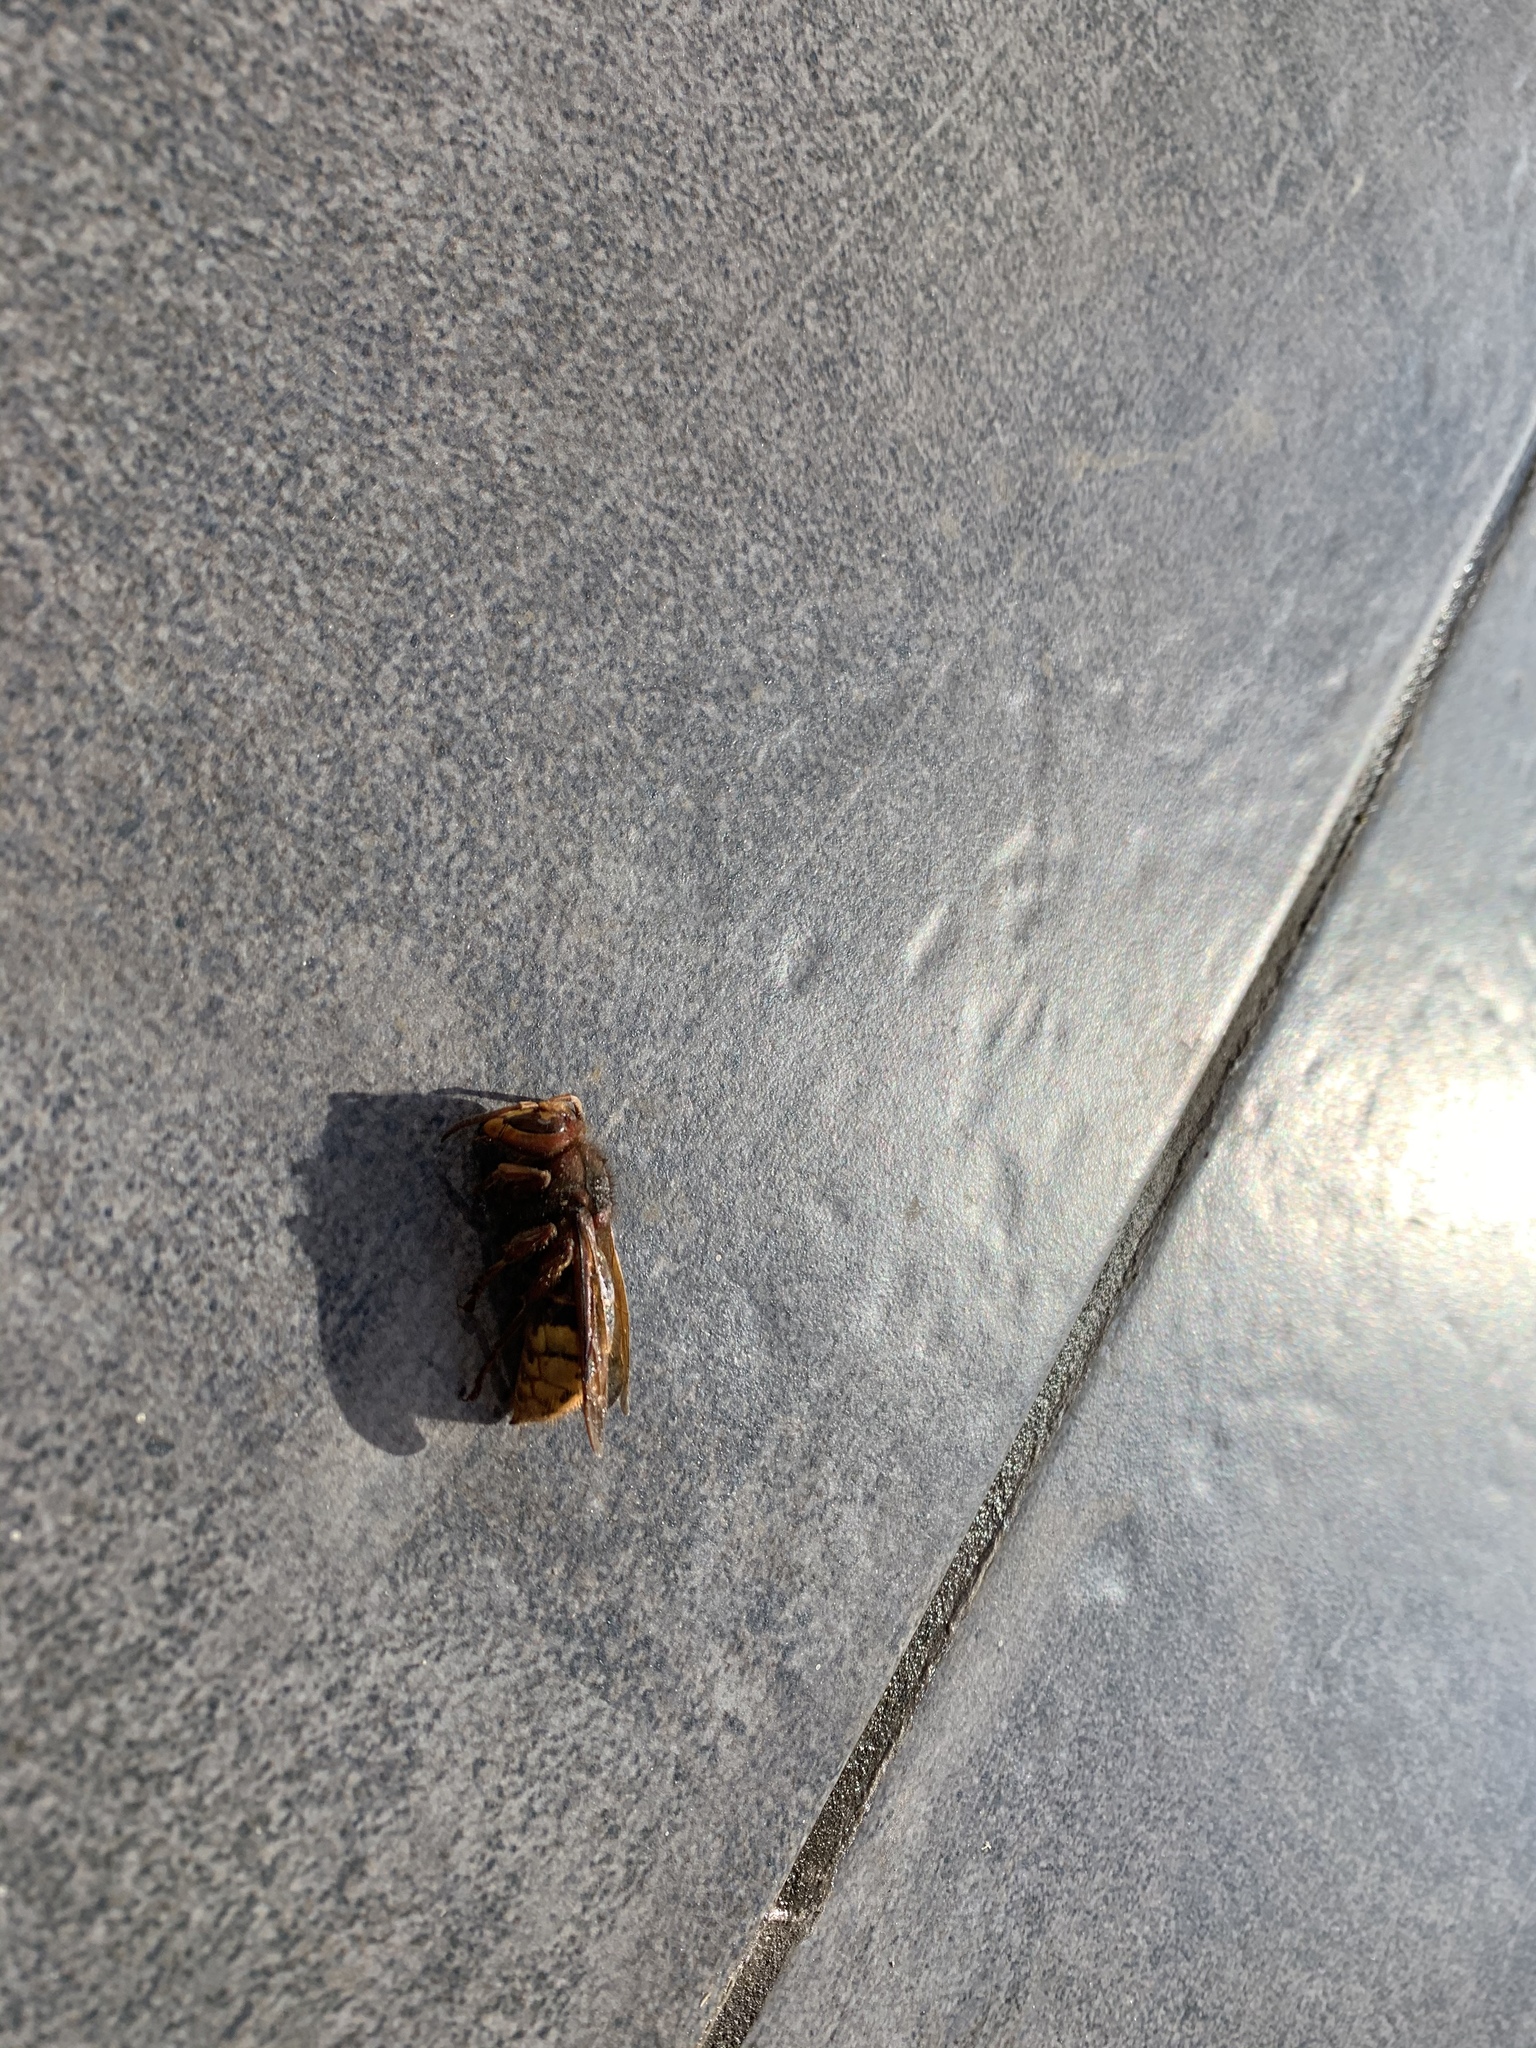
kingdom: Animalia
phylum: Arthropoda
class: Insecta
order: Hymenoptera
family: Vespidae
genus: Vespa
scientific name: Vespa crabro
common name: Hornet
